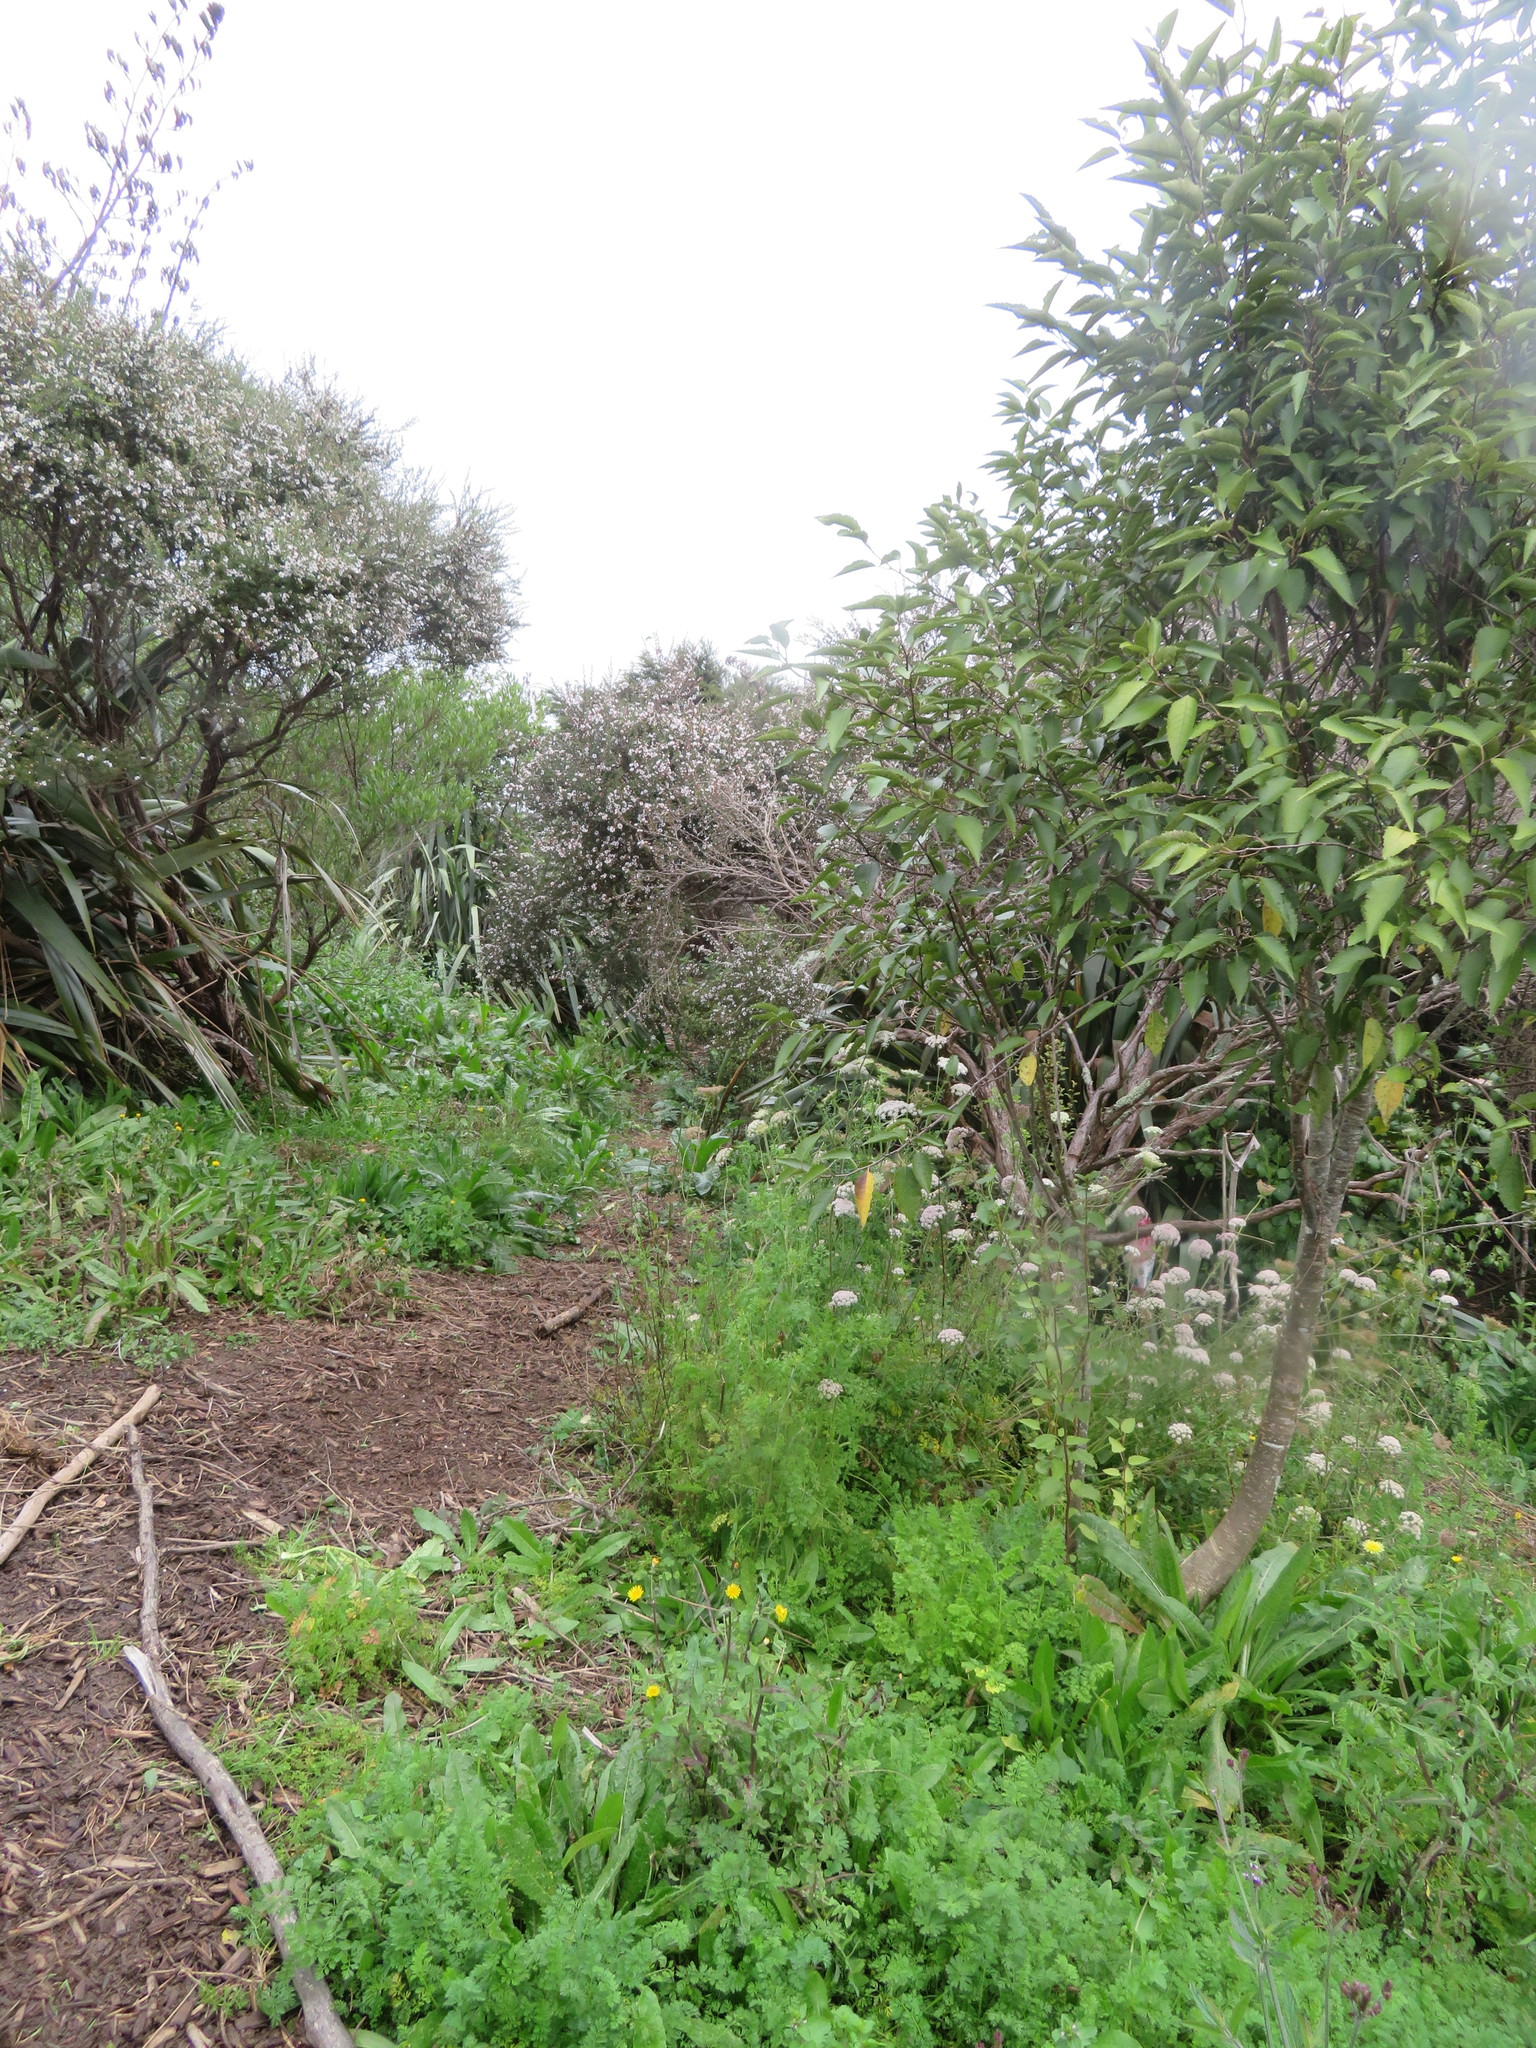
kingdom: Plantae
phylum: Tracheophyta
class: Magnoliopsida
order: Asterales
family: Asteraceae
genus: Helminthotheca
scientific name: Helminthotheca echioides
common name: Ox-tongue
